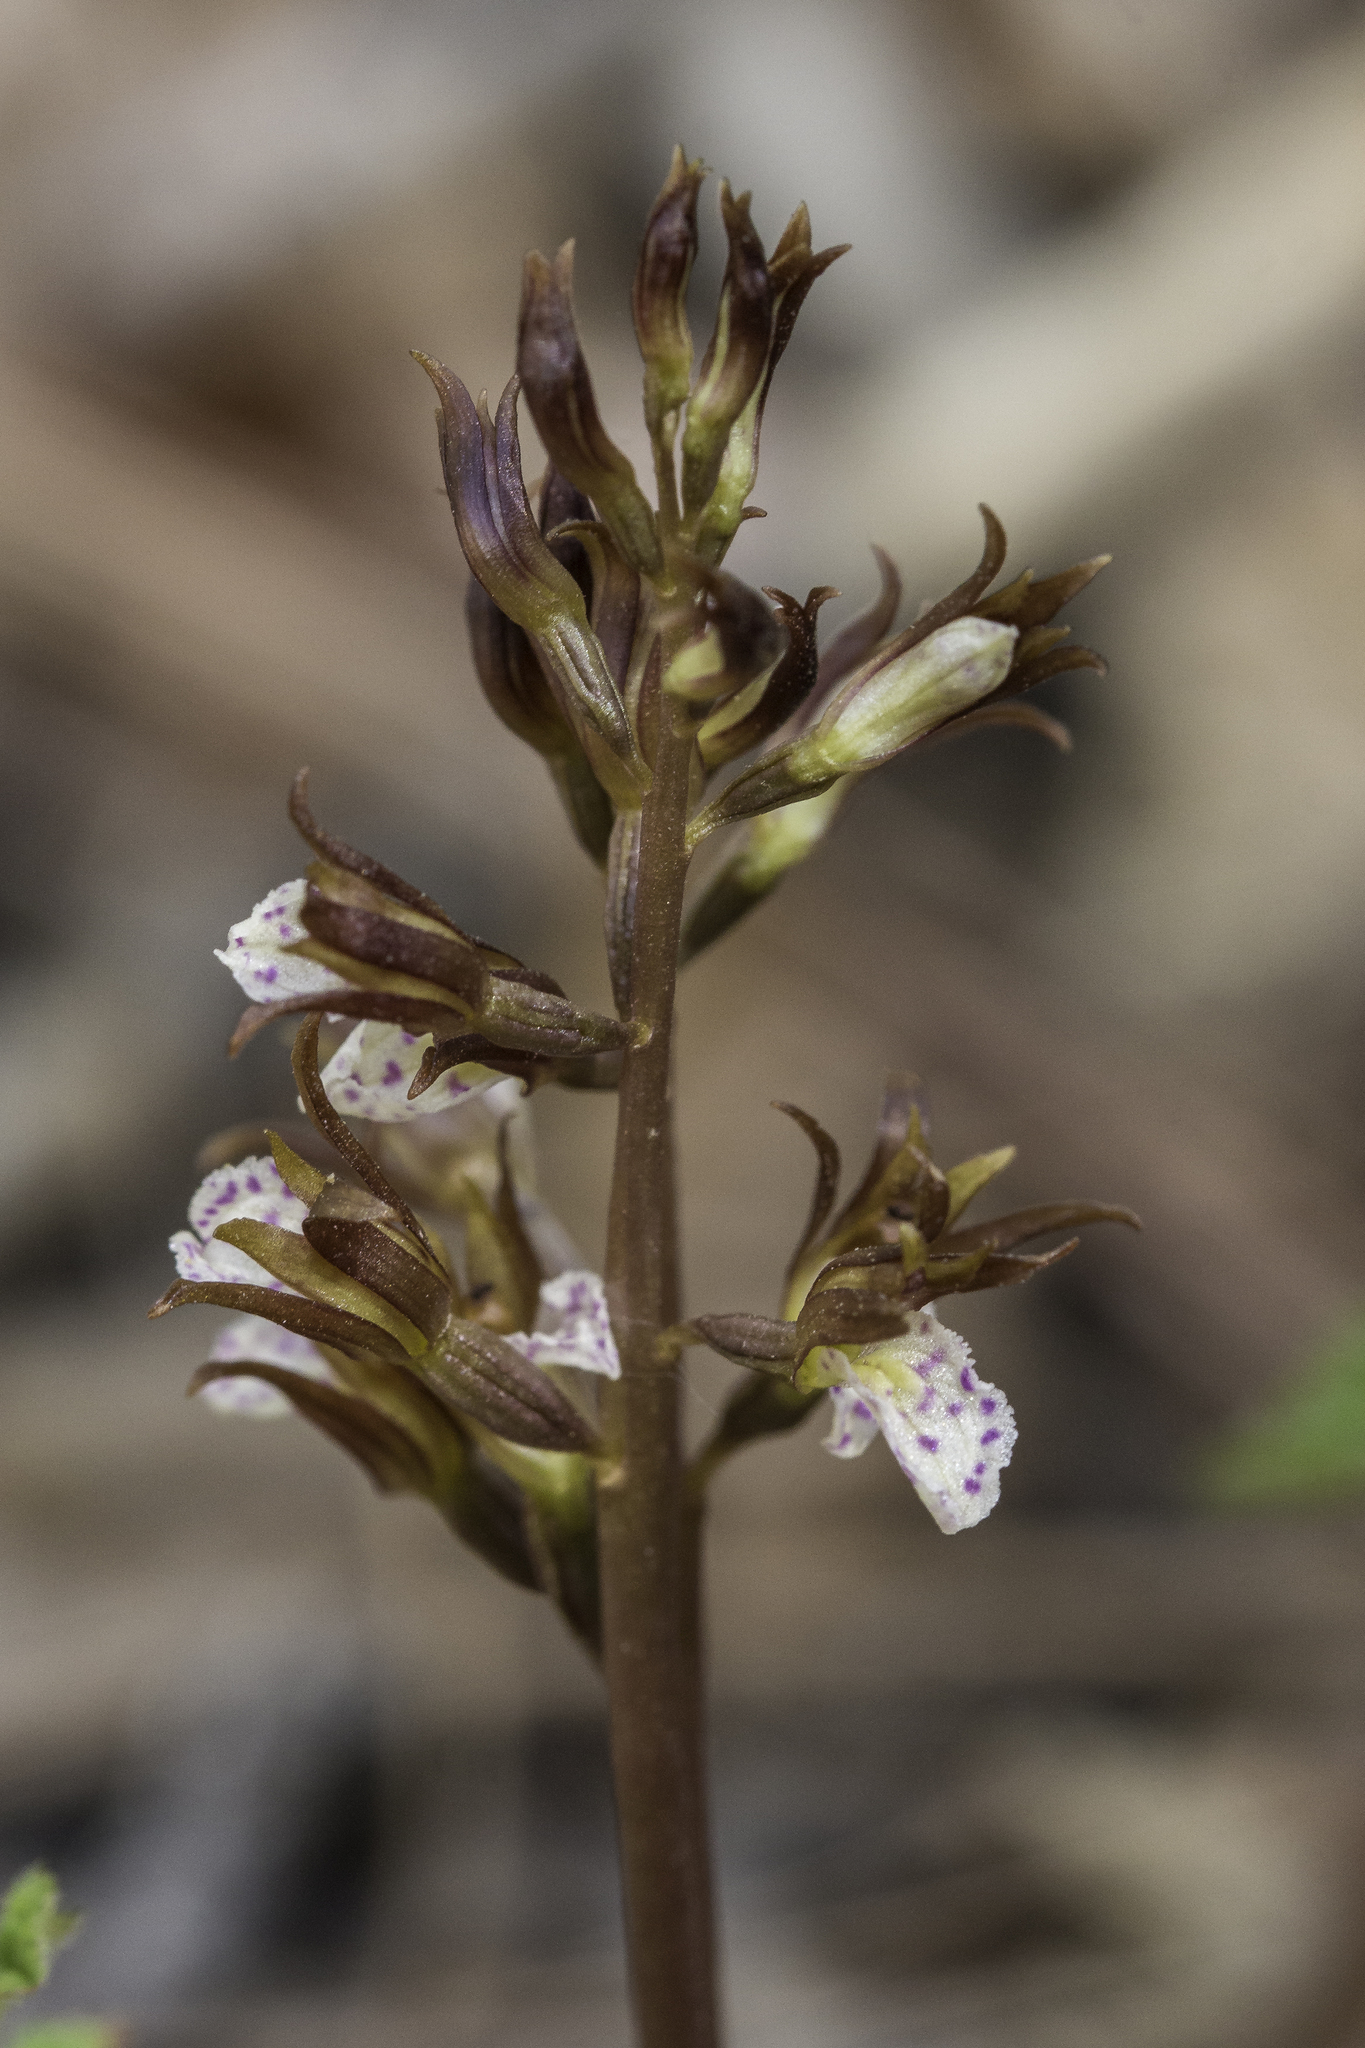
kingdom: Plantae
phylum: Tracheophyta
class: Liliopsida
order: Asparagales
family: Orchidaceae
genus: Corallorhiza
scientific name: Corallorhiza wisteriana
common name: Spring coralroot
